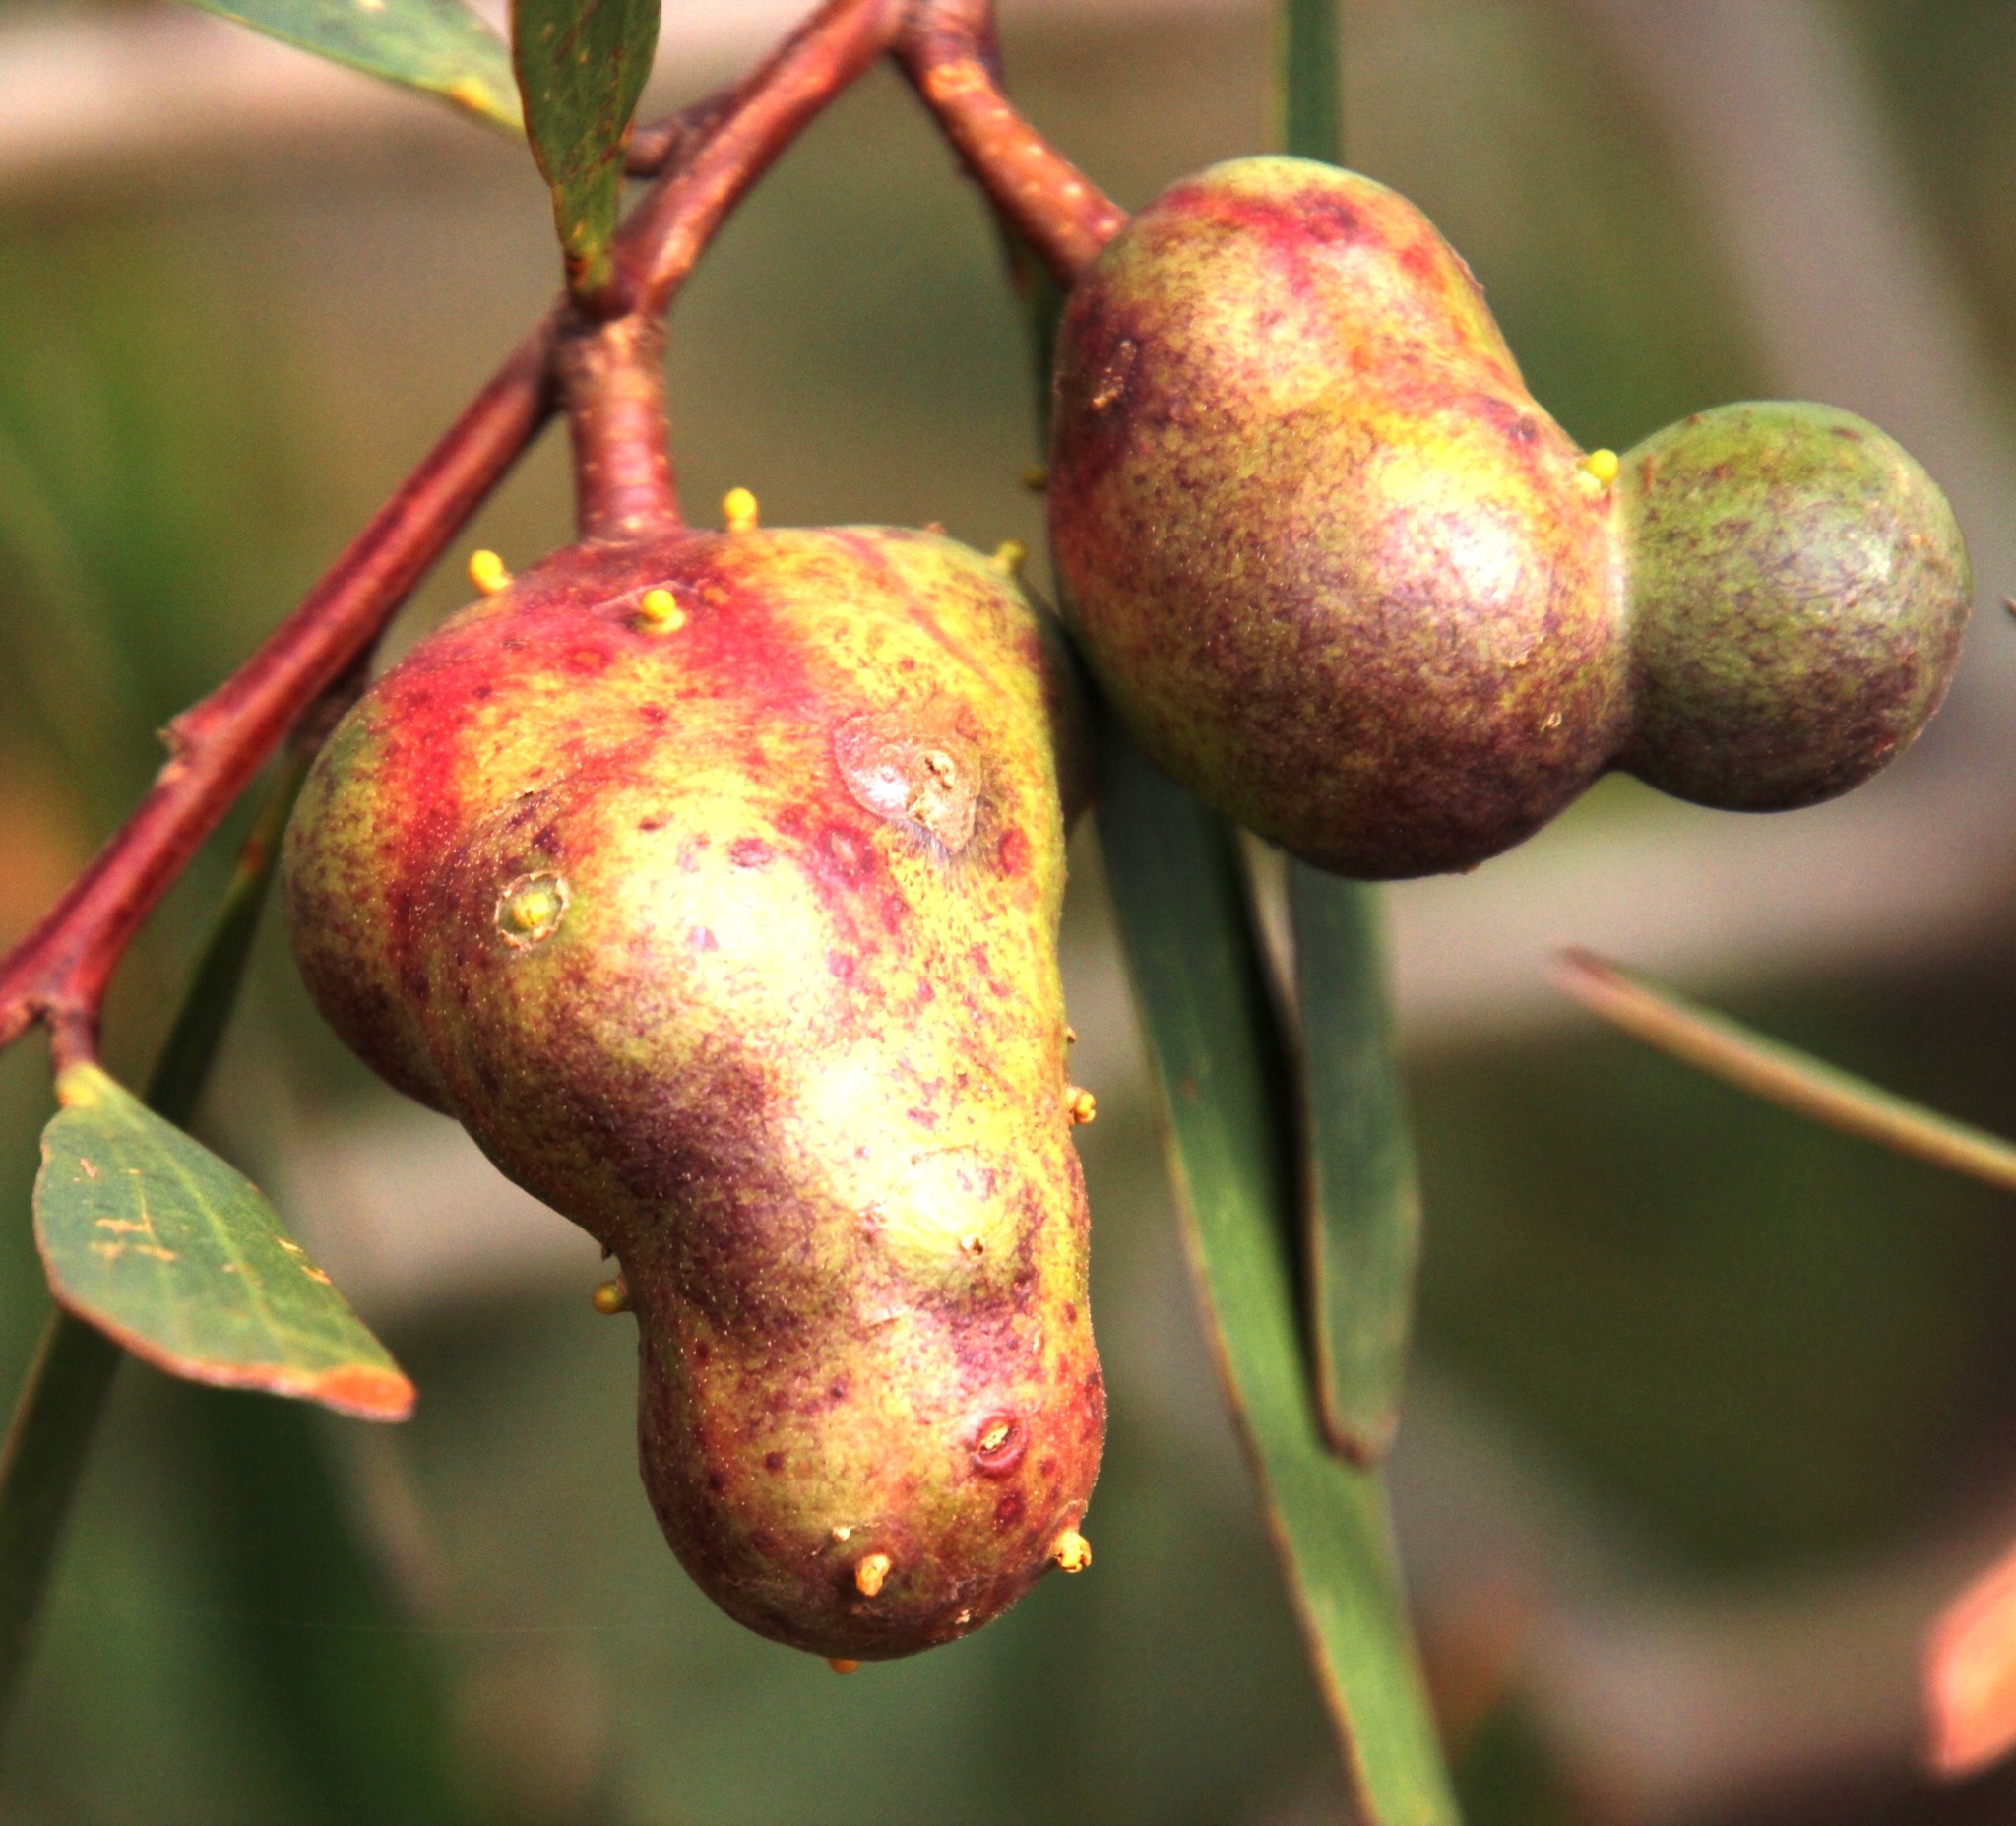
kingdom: Plantae
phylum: Tracheophyta
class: Magnoliopsida
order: Fabales
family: Fabaceae
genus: Acacia
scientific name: Acacia longifolia
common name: Sydney golden wattle
